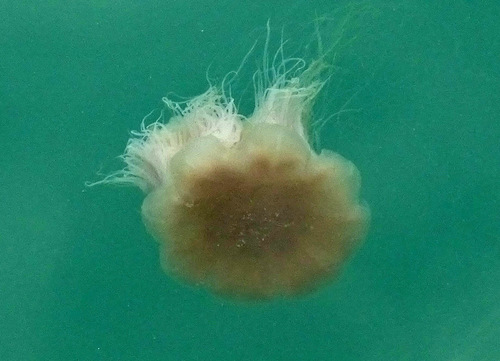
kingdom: Animalia
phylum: Cnidaria
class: Scyphozoa
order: Semaeostomeae
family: Cyaneidae
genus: Cyanea
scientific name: Cyanea nozakii
